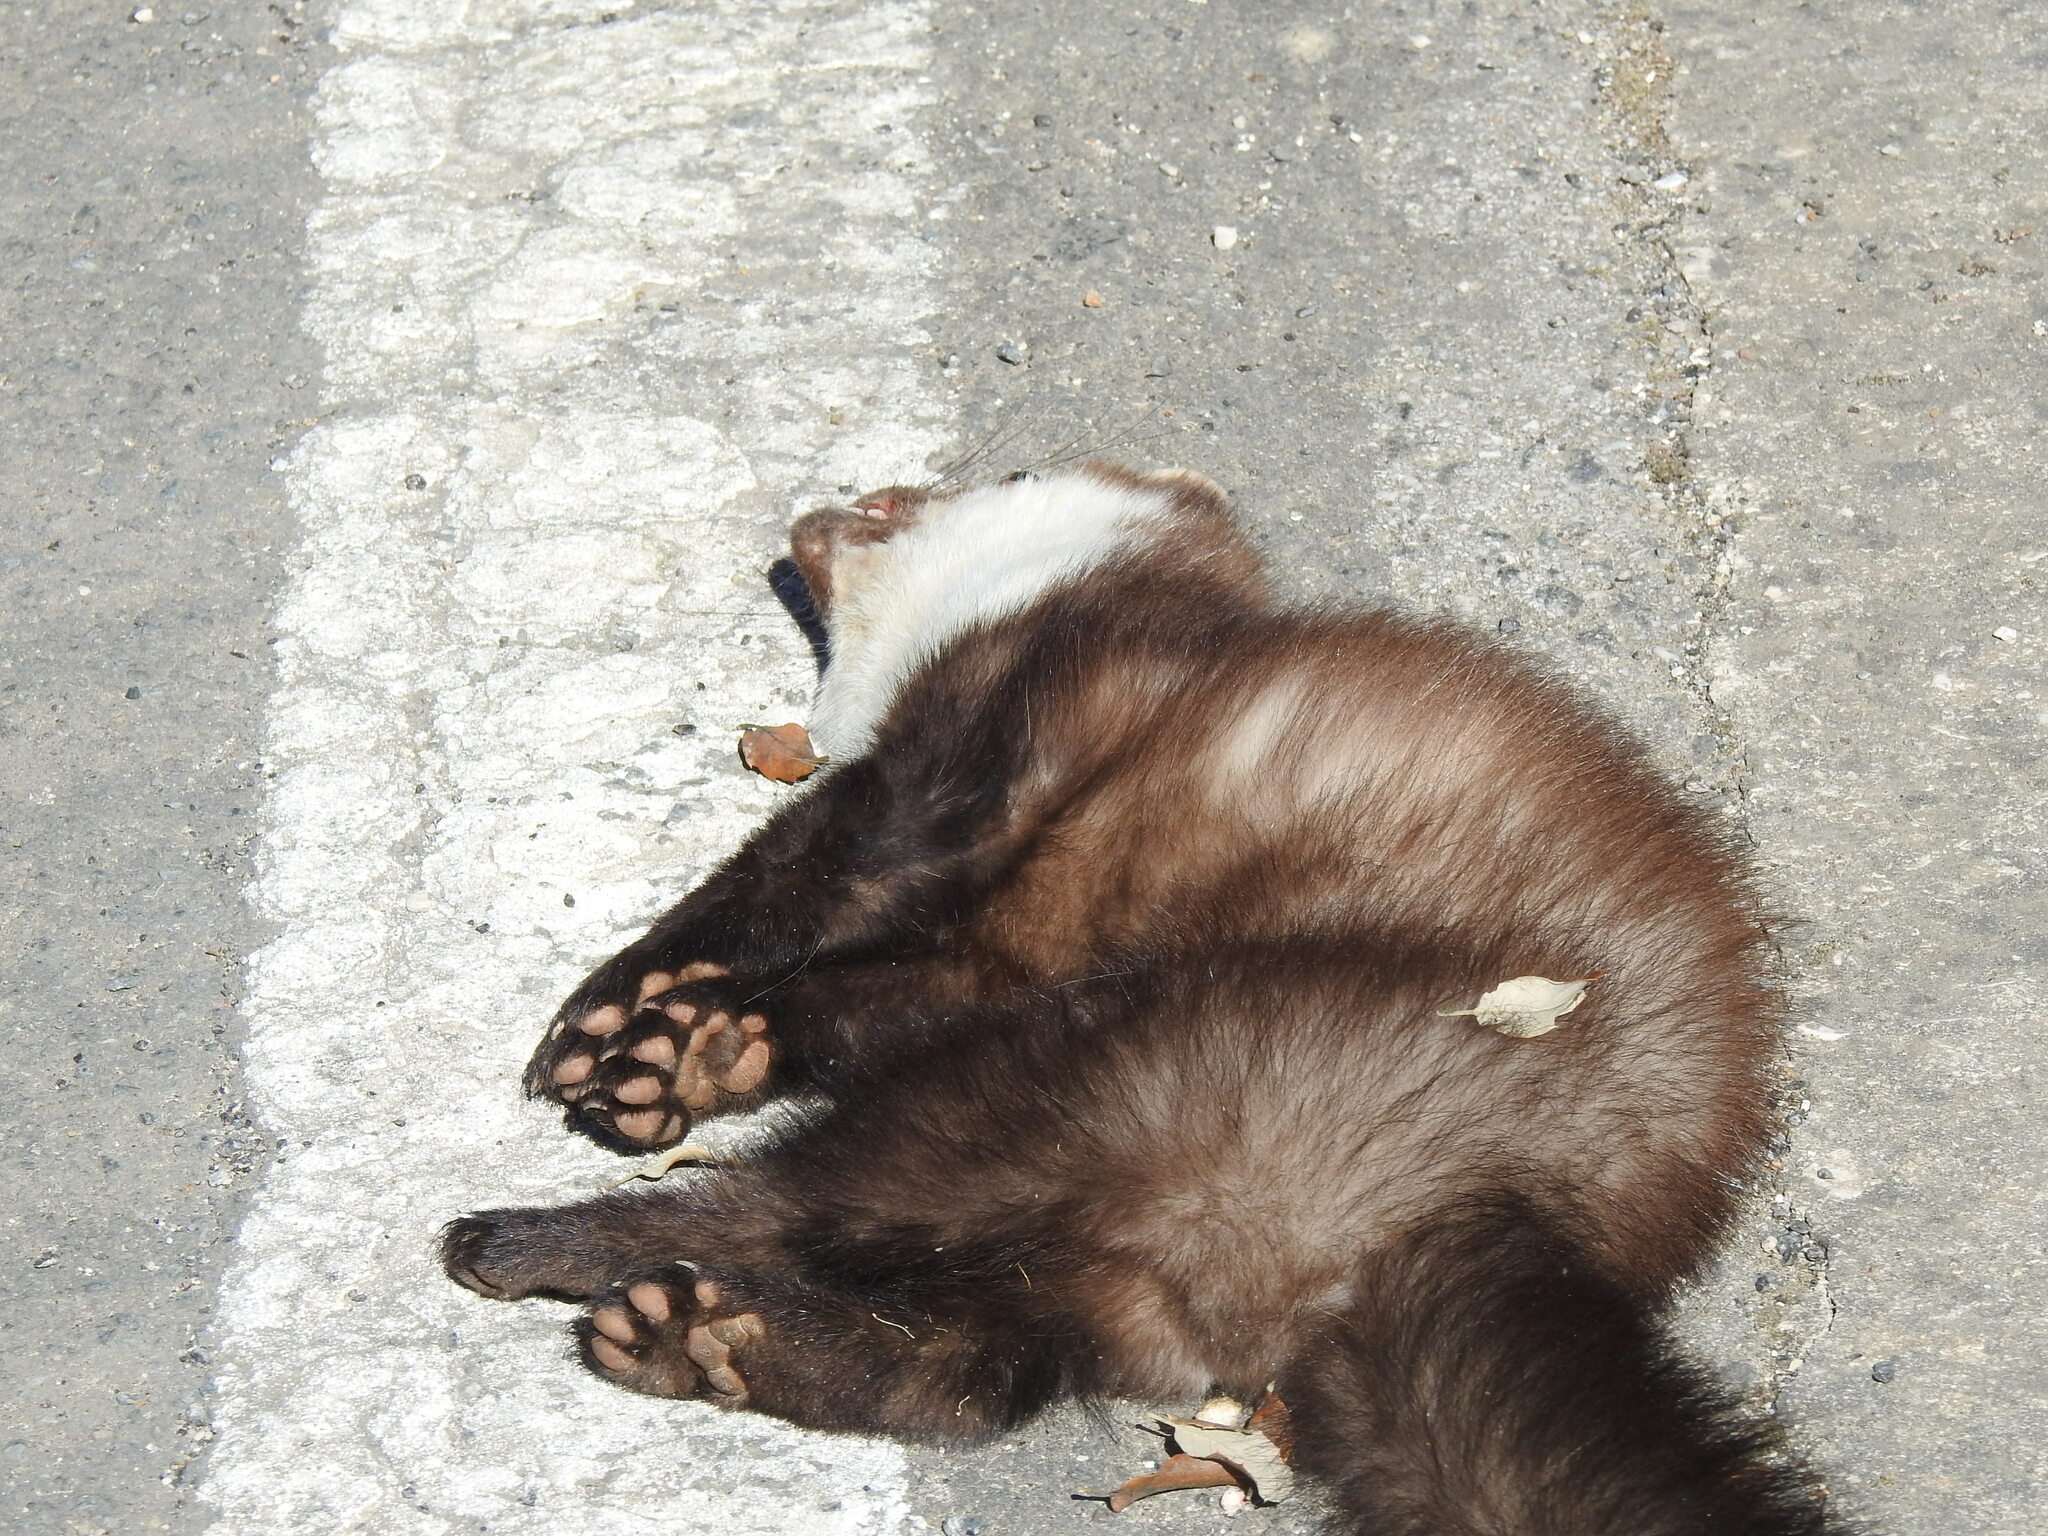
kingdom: Animalia
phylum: Chordata
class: Mammalia
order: Carnivora
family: Mustelidae
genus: Martes
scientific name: Martes foina
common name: Beech marten
